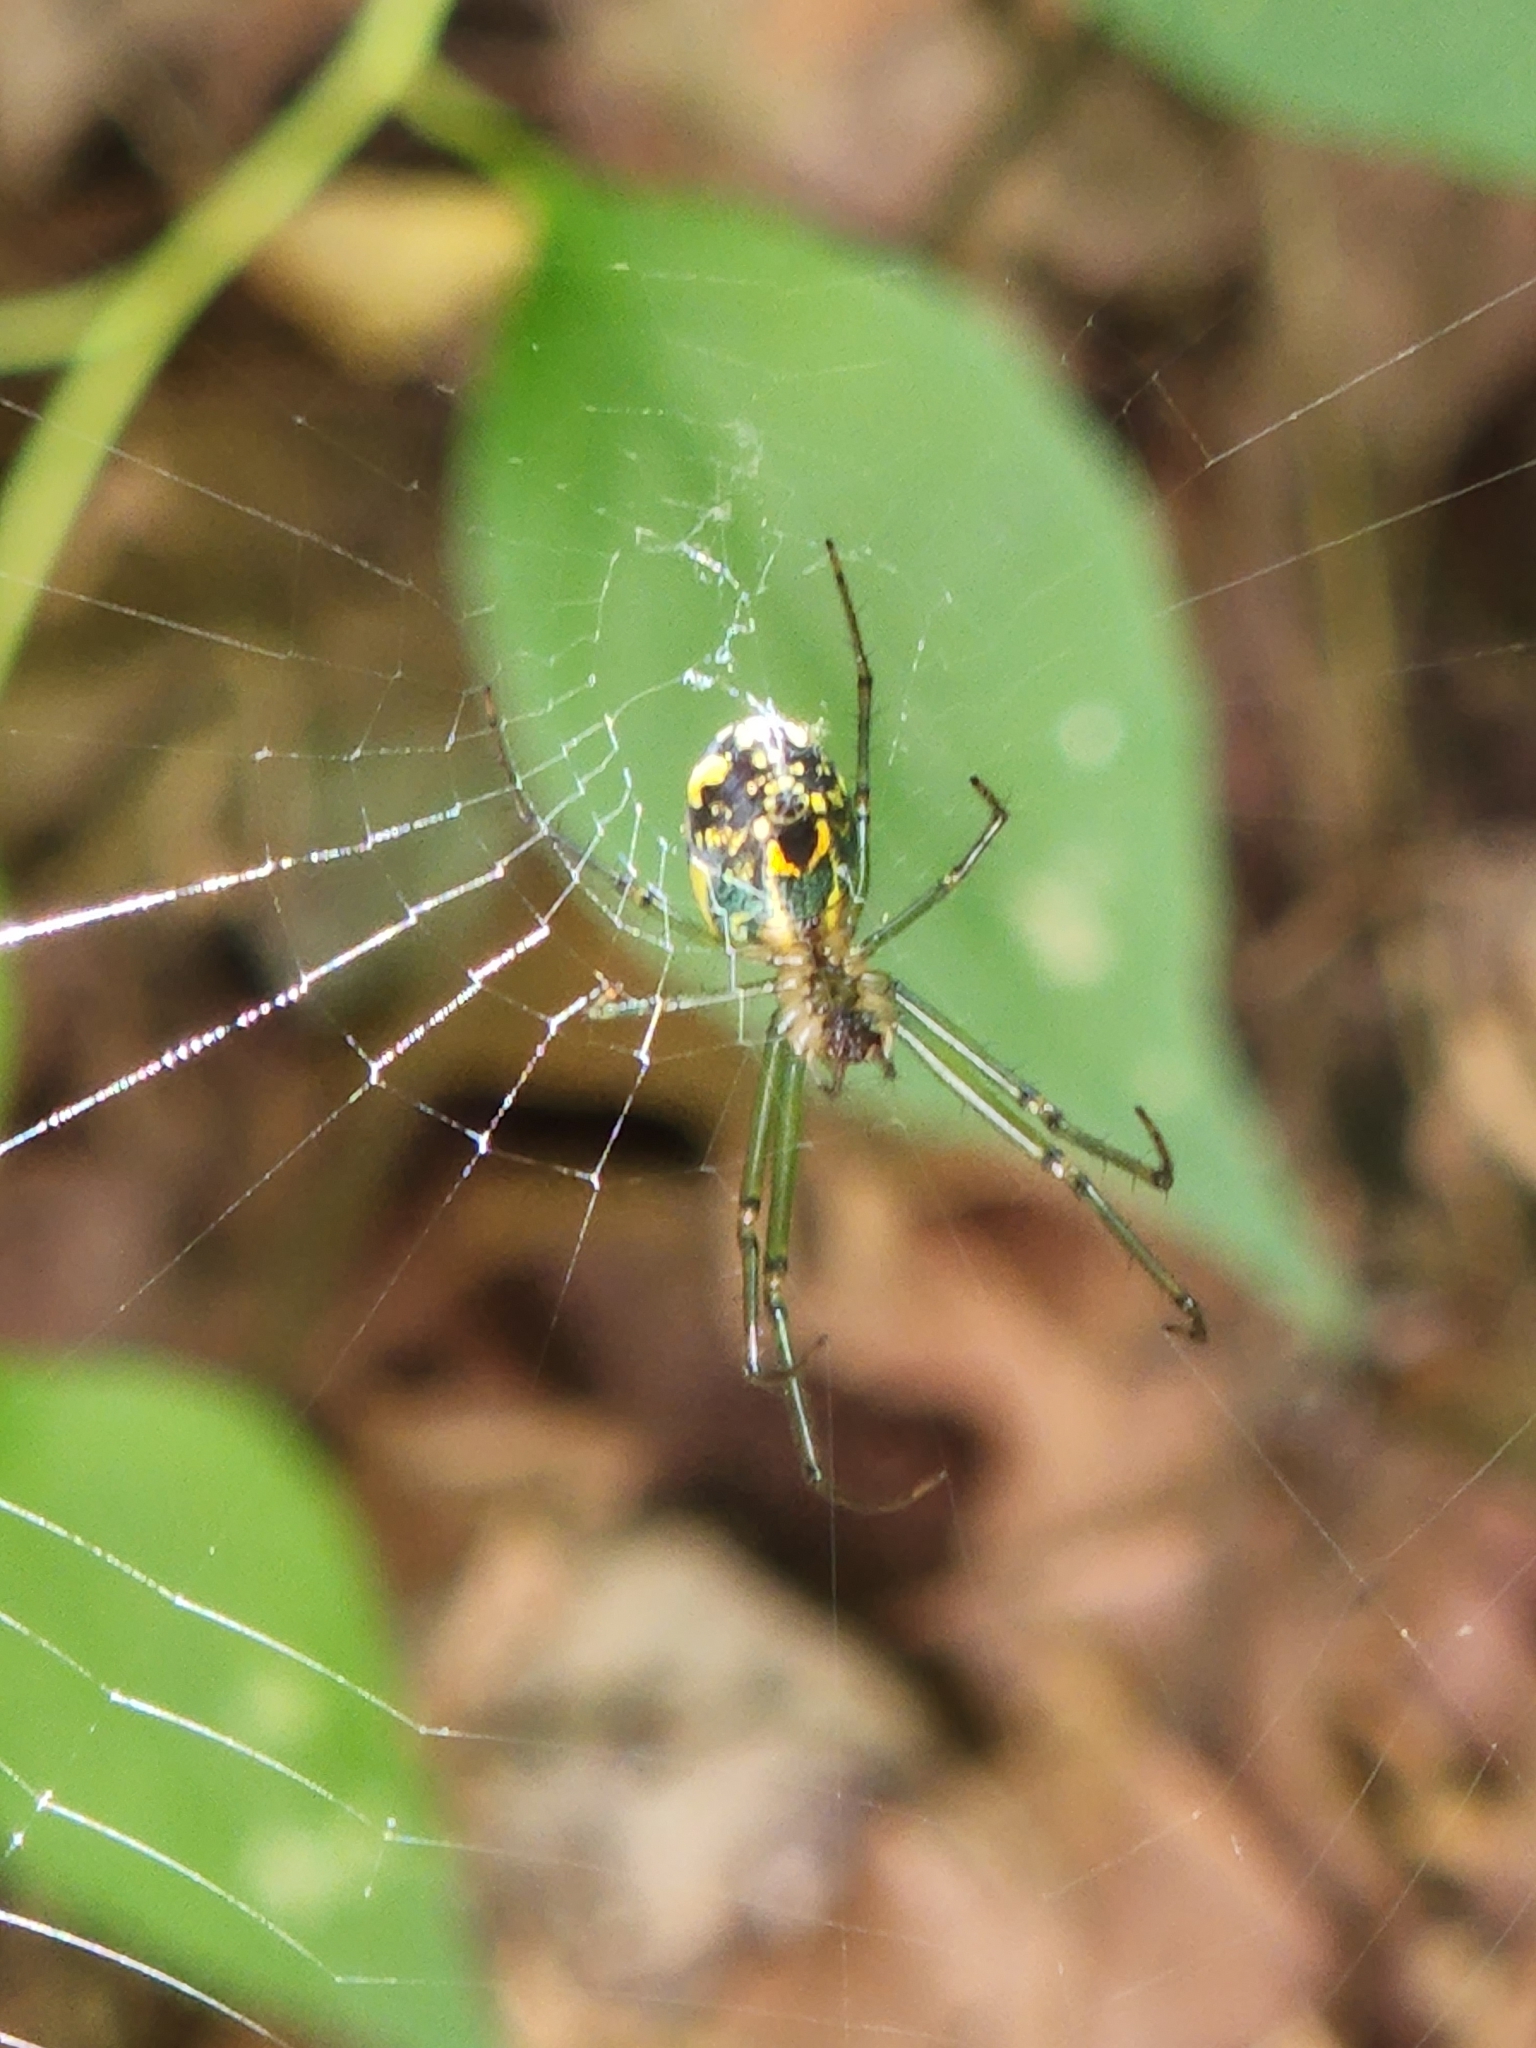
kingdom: Animalia
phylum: Arthropoda
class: Arachnida
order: Araneae
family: Tetragnathidae
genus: Leucauge
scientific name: Leucauge venusta
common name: Longjawed orb weavers
